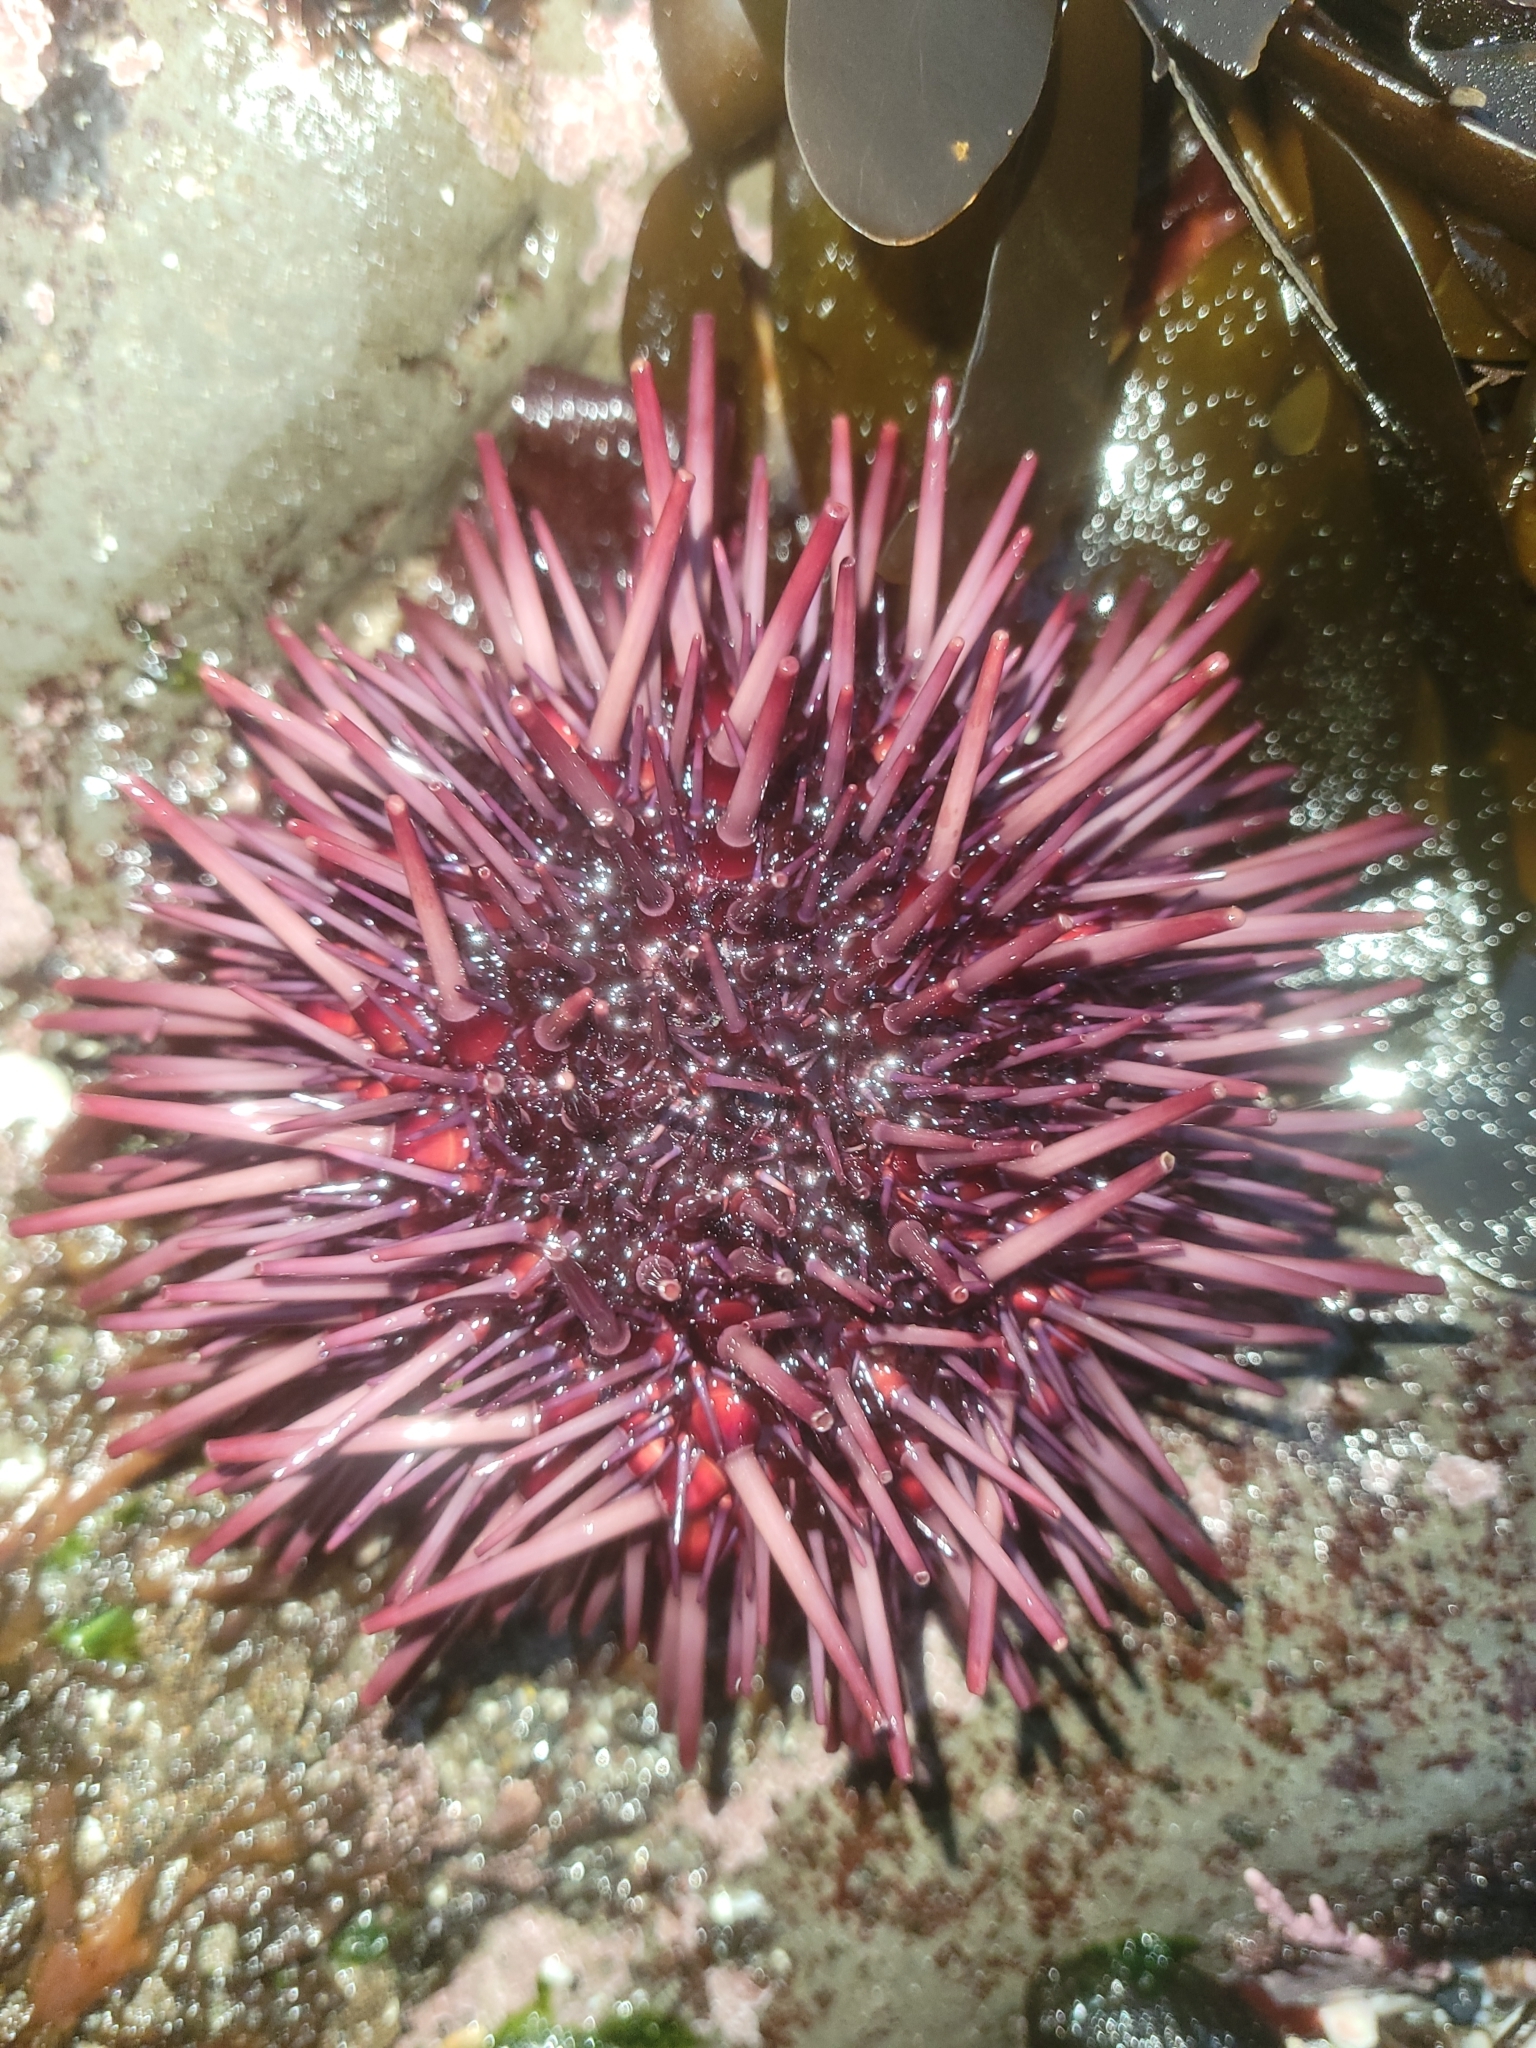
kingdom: Animalia
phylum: Echinodermata
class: Echinoidea
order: Camarodonta
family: Strongylocentrotidae
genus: Mesocentrotus
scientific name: Mesocentrotus franciscanus
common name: Red sea urchin
